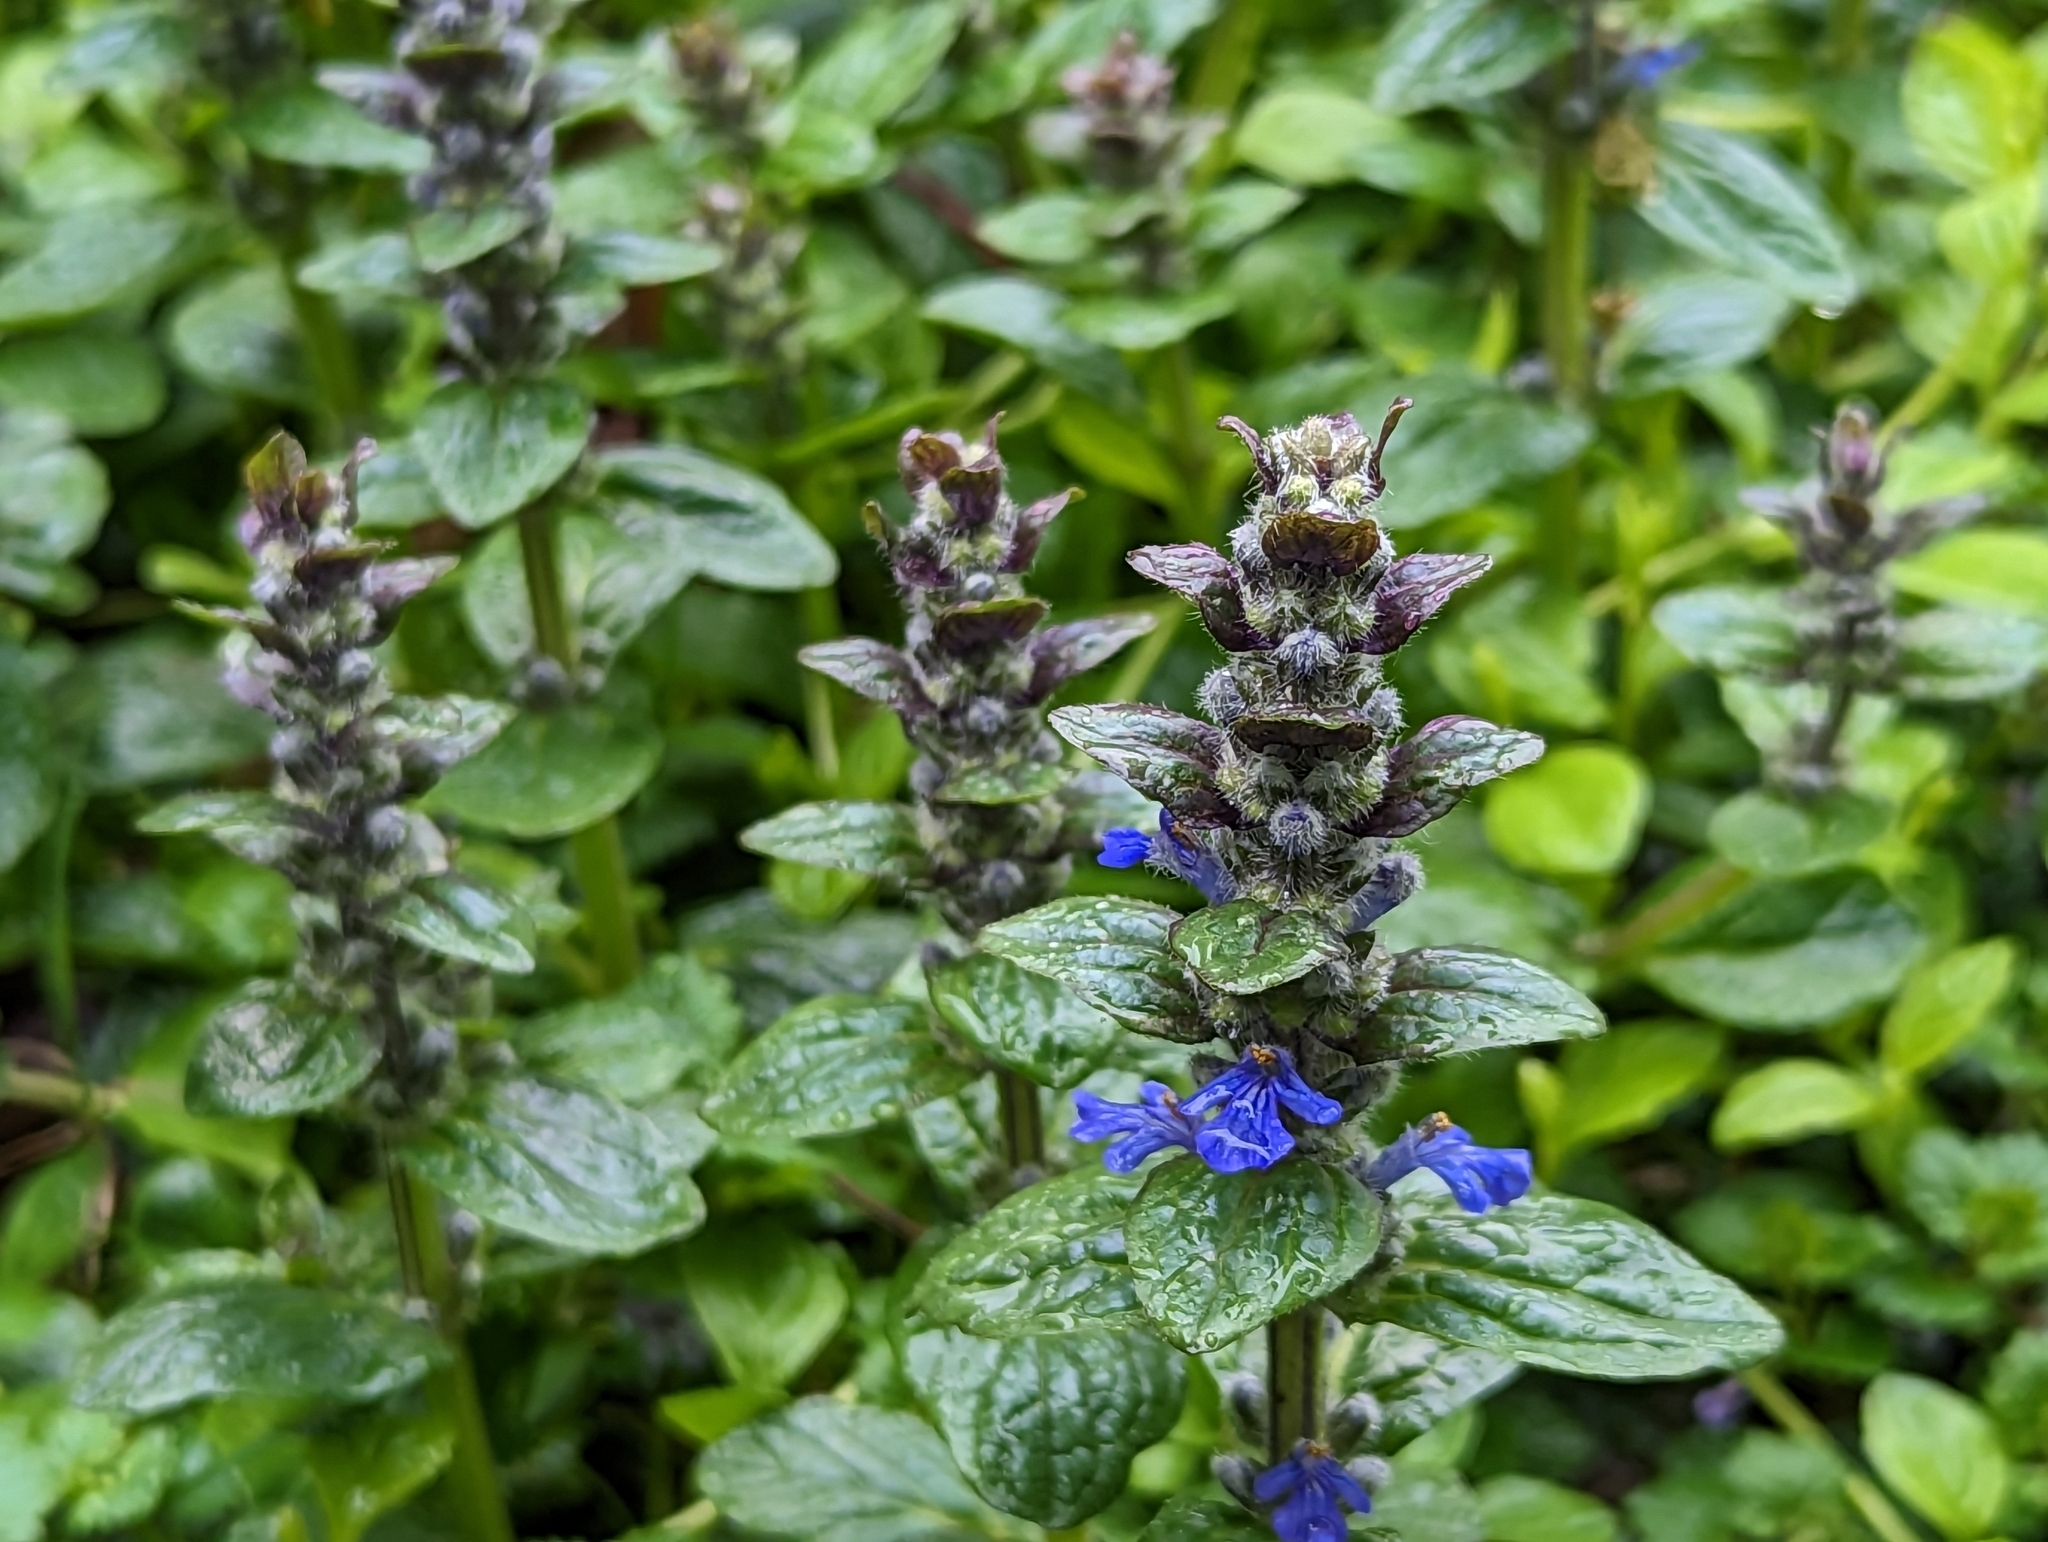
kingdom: Plantae
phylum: Tracheophyta
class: Magnoliopsida
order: Lamiales
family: Lamiaceae
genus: Ajuga
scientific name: Ajuga reptans
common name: Bugle
